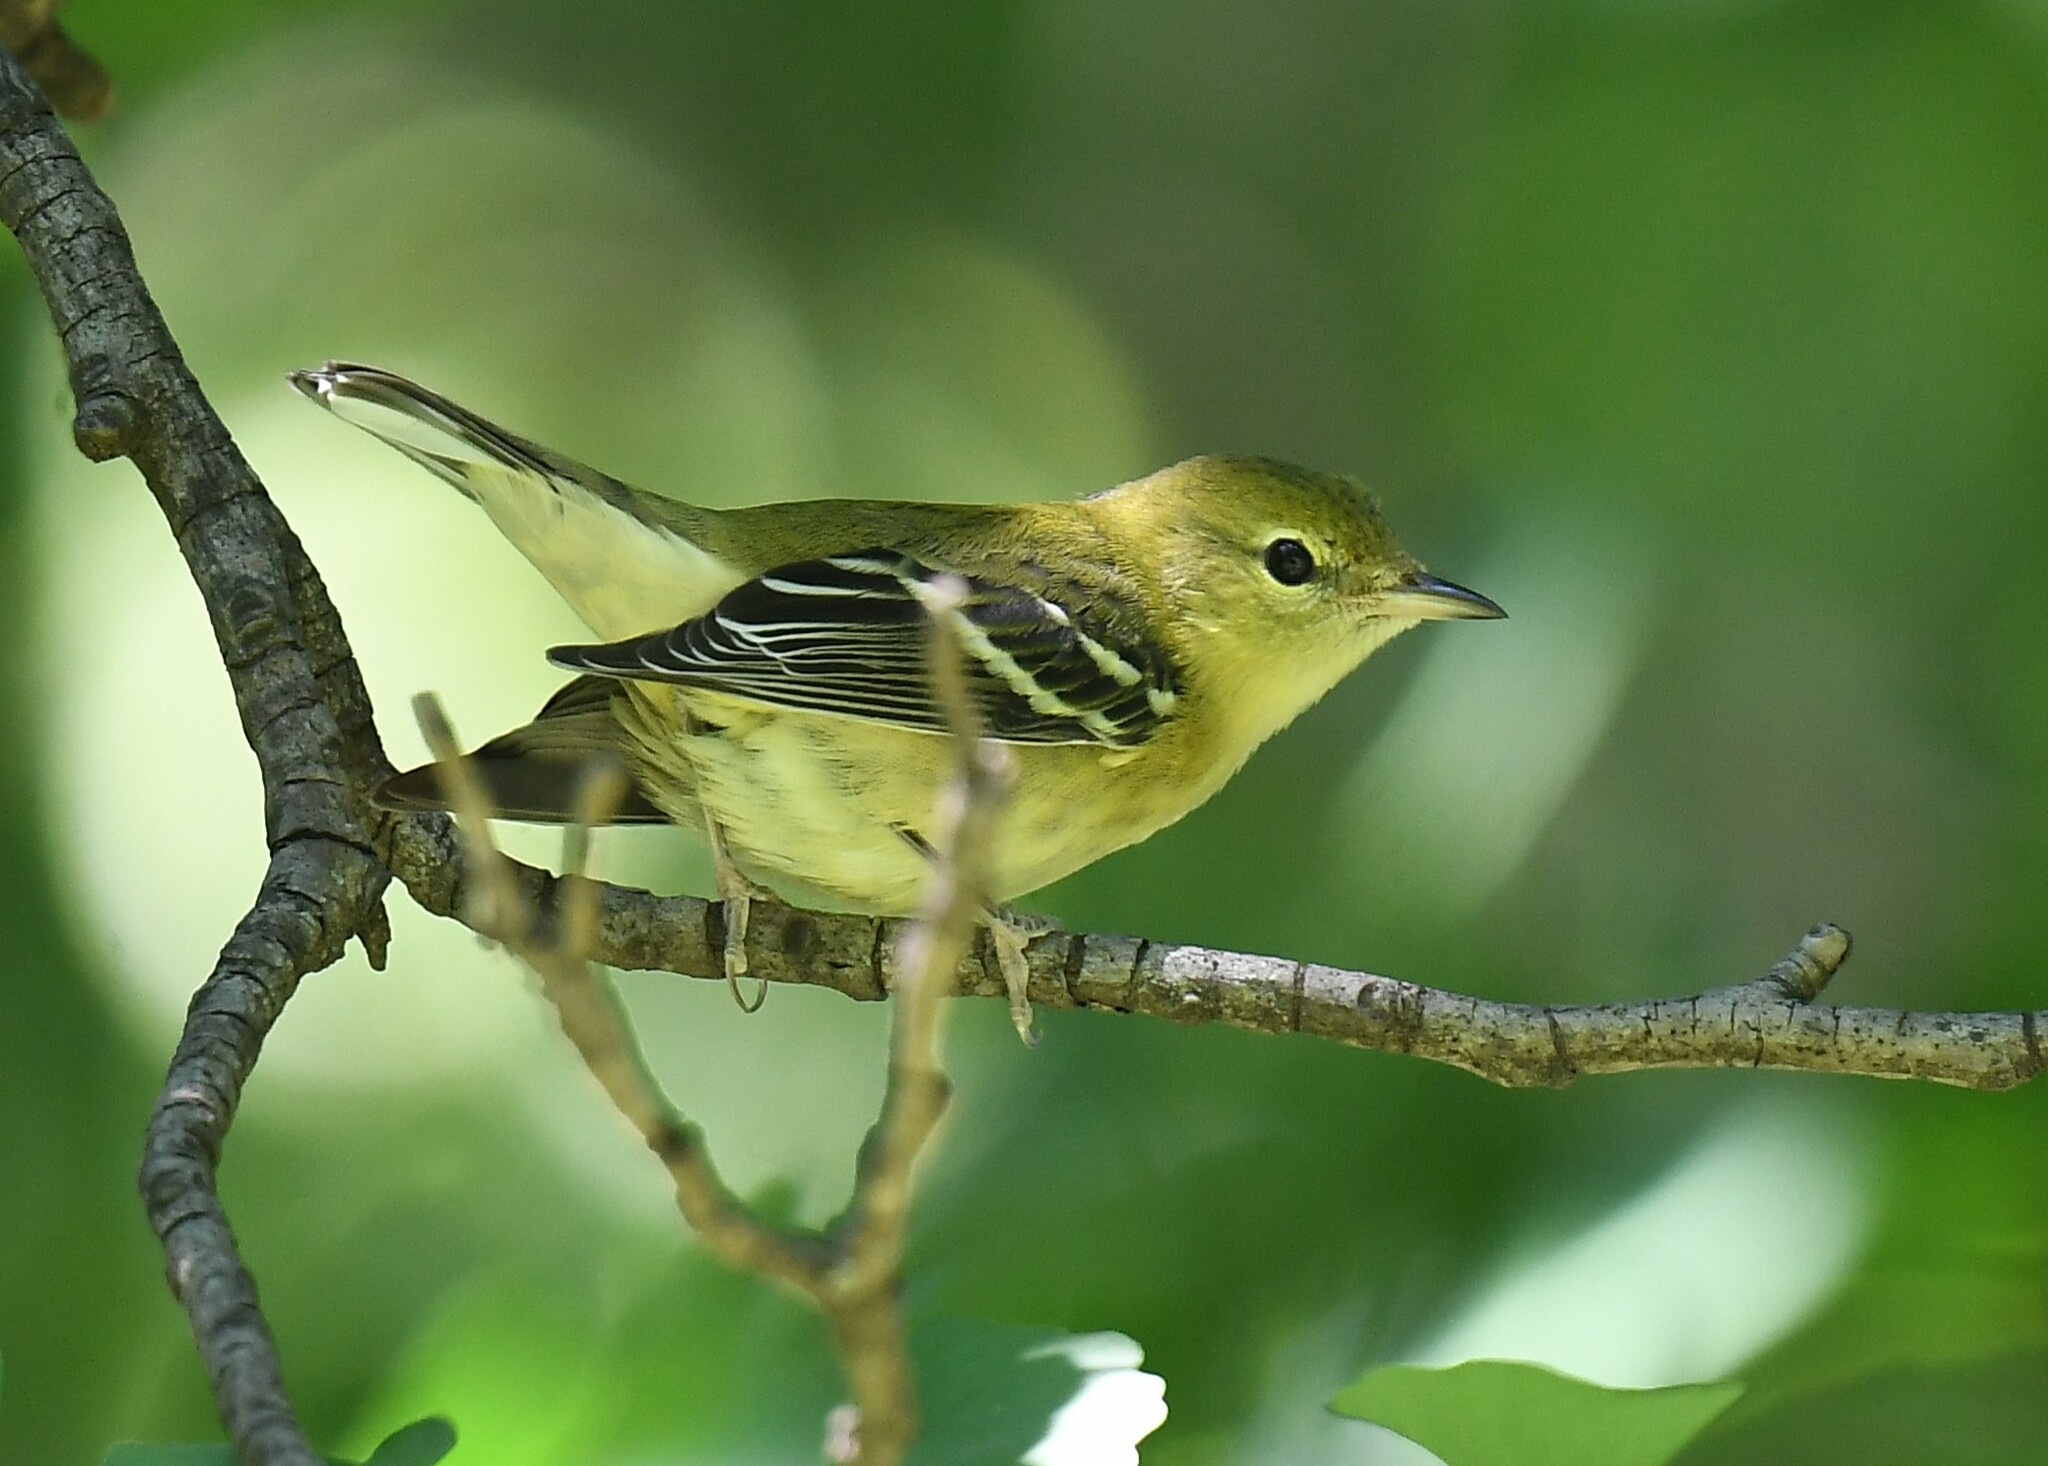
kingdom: Animalia
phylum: Chordata
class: Aves
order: Passeriformes
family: Parulidae
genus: Setophaga
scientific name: Setophaga castanea
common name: Bay-breasted warbler
